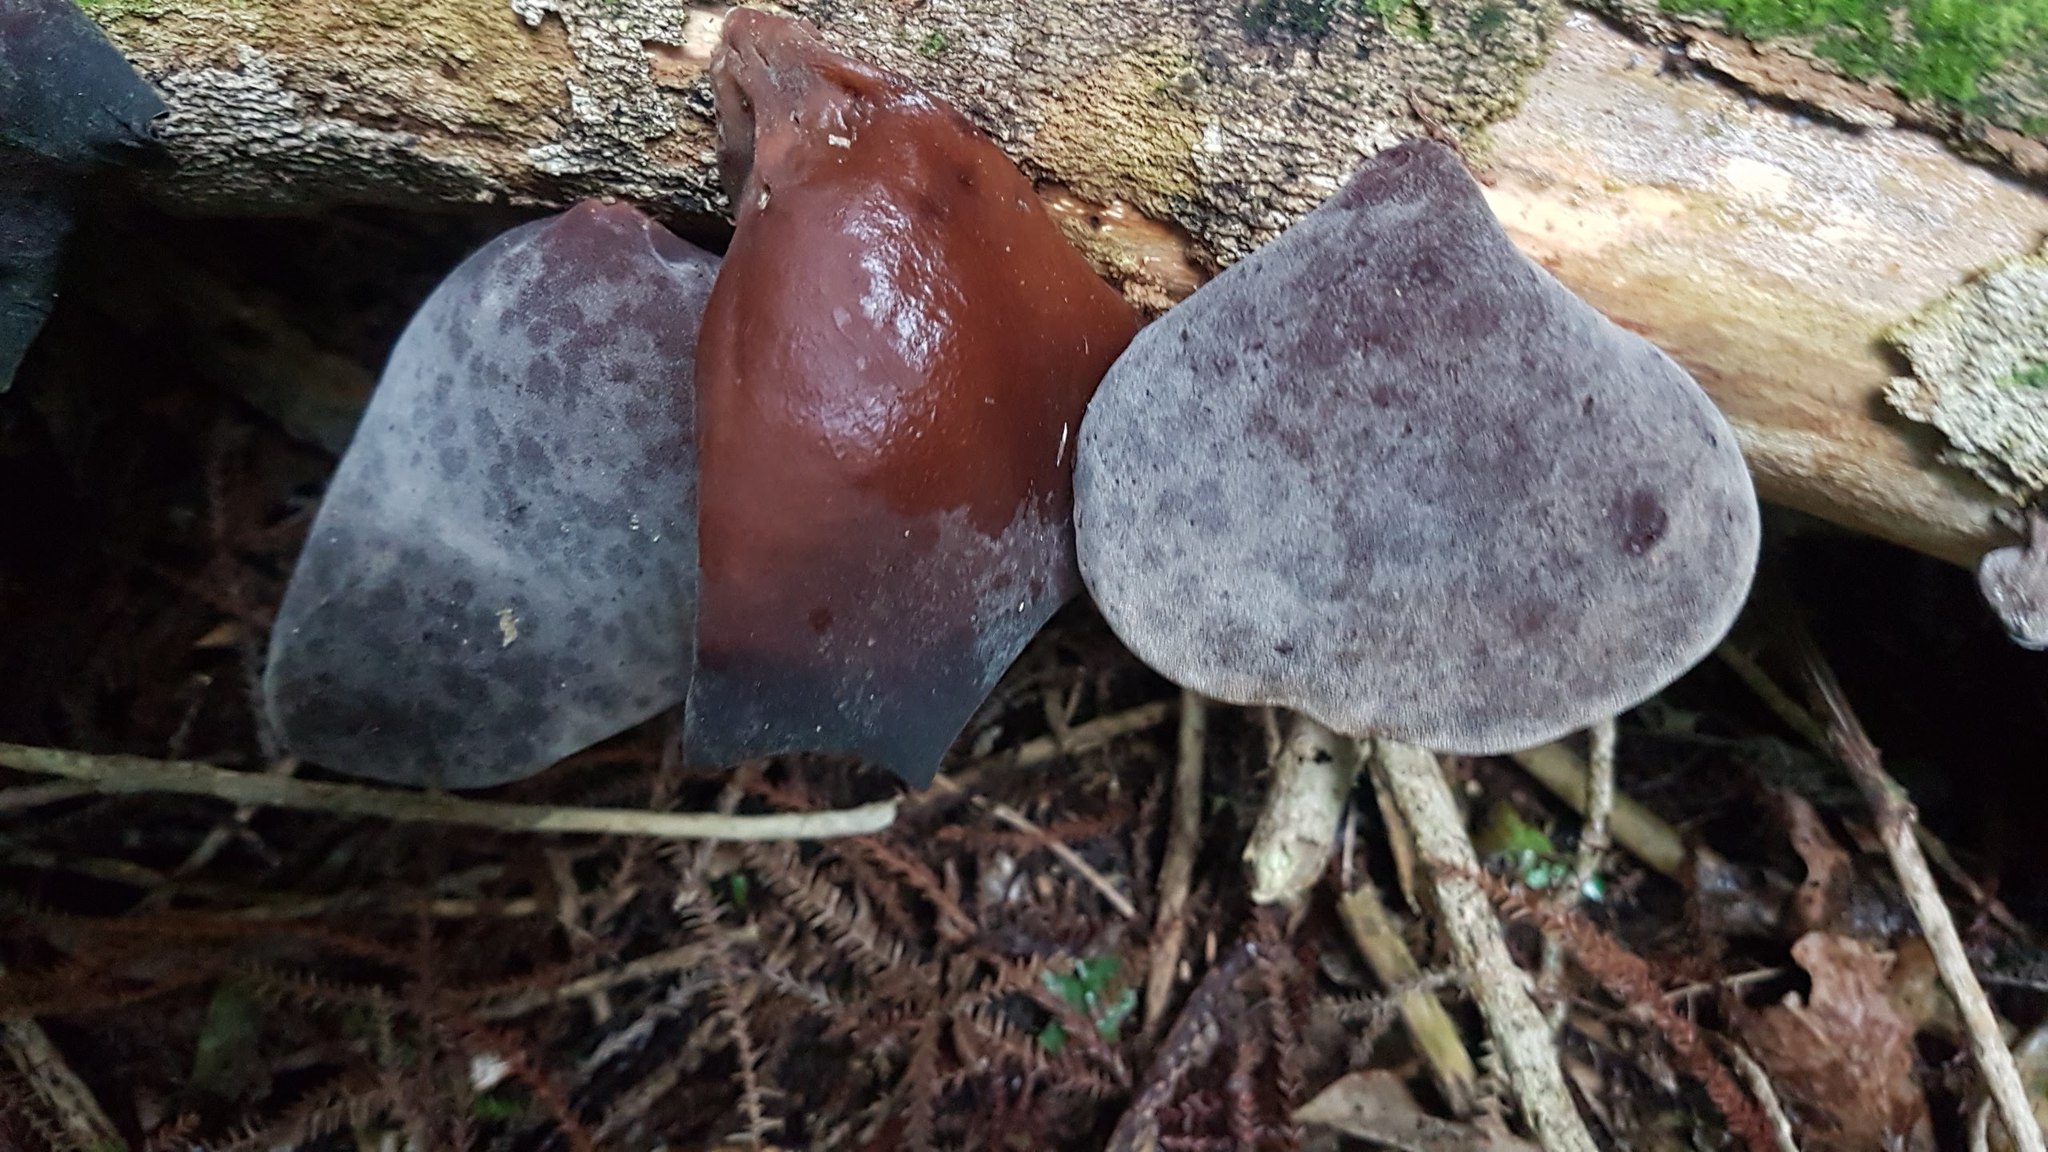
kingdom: Fungi
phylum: Basidiomycota
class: Agaricomycetes
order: Auriculariales
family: Auriculariaceae
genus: Auricularia
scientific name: Auricularia cornea
